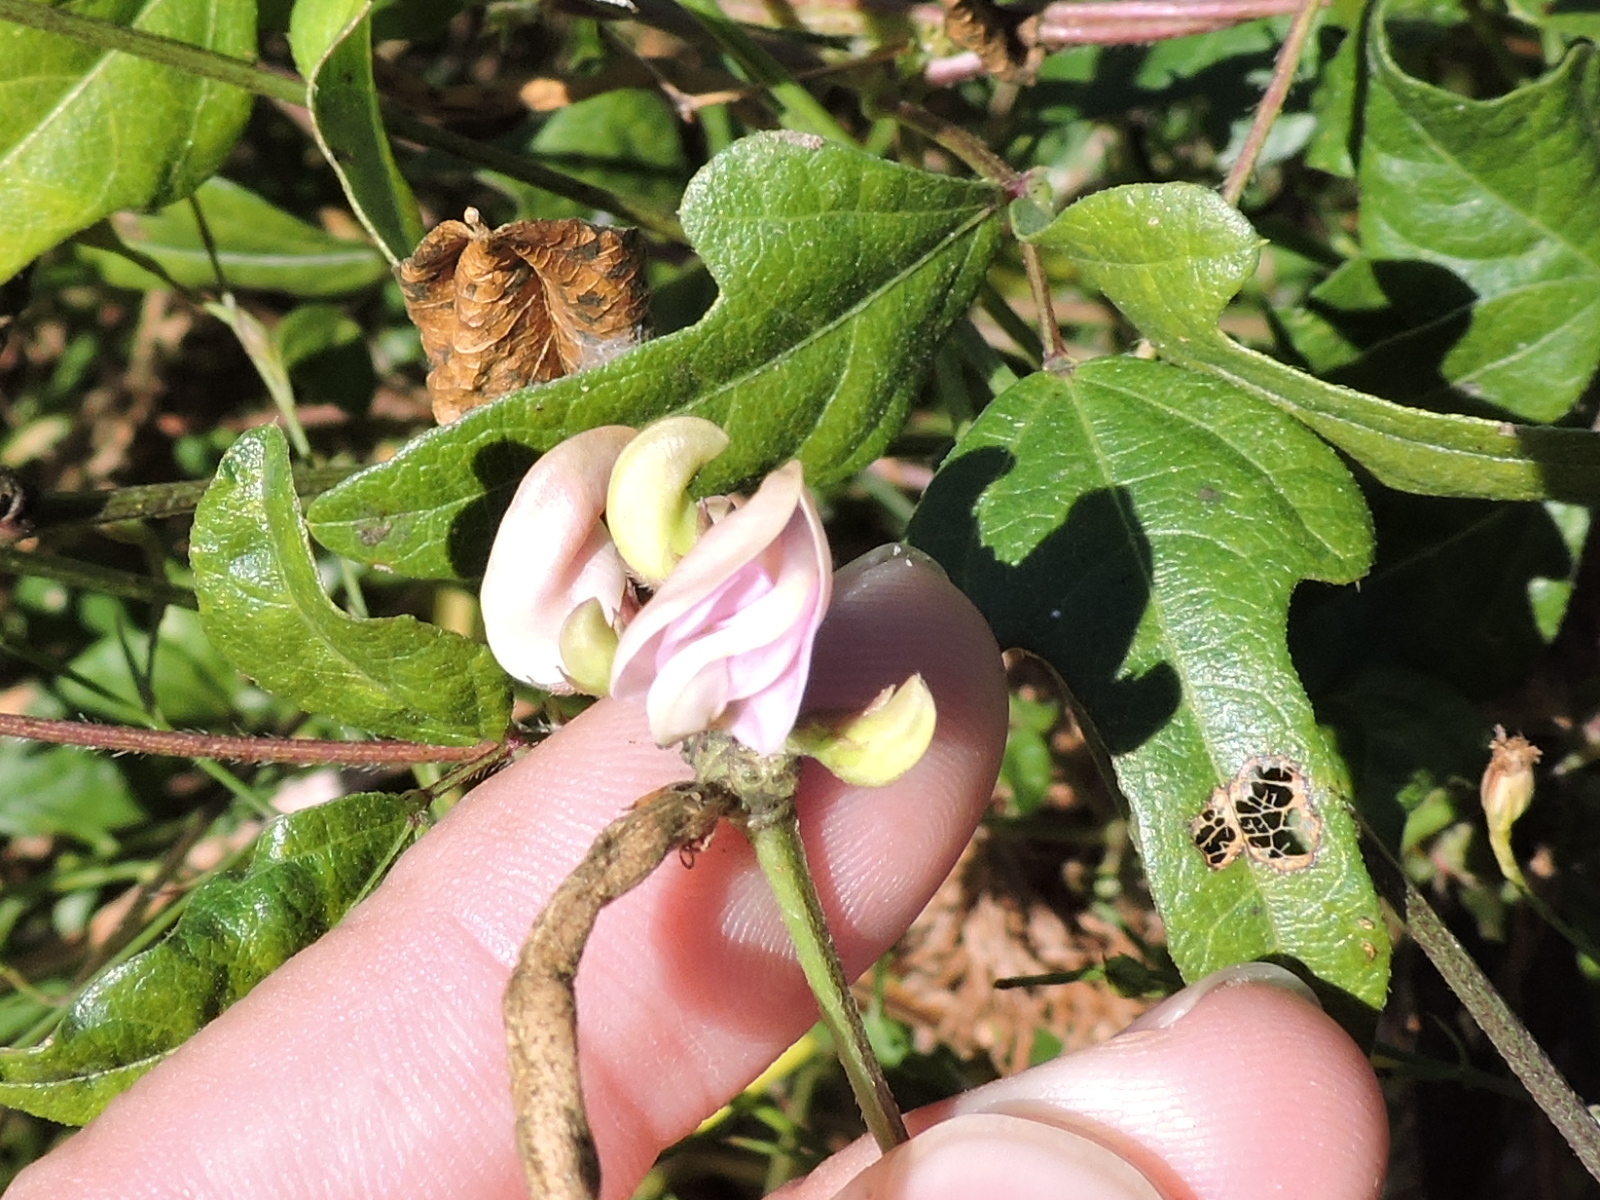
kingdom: Plantae
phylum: Tracheophyta
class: Magnoliopsida
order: Fabales
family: Fabaceae
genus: Strophostyles
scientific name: Strophostyles helvola
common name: Trailing wild bean
